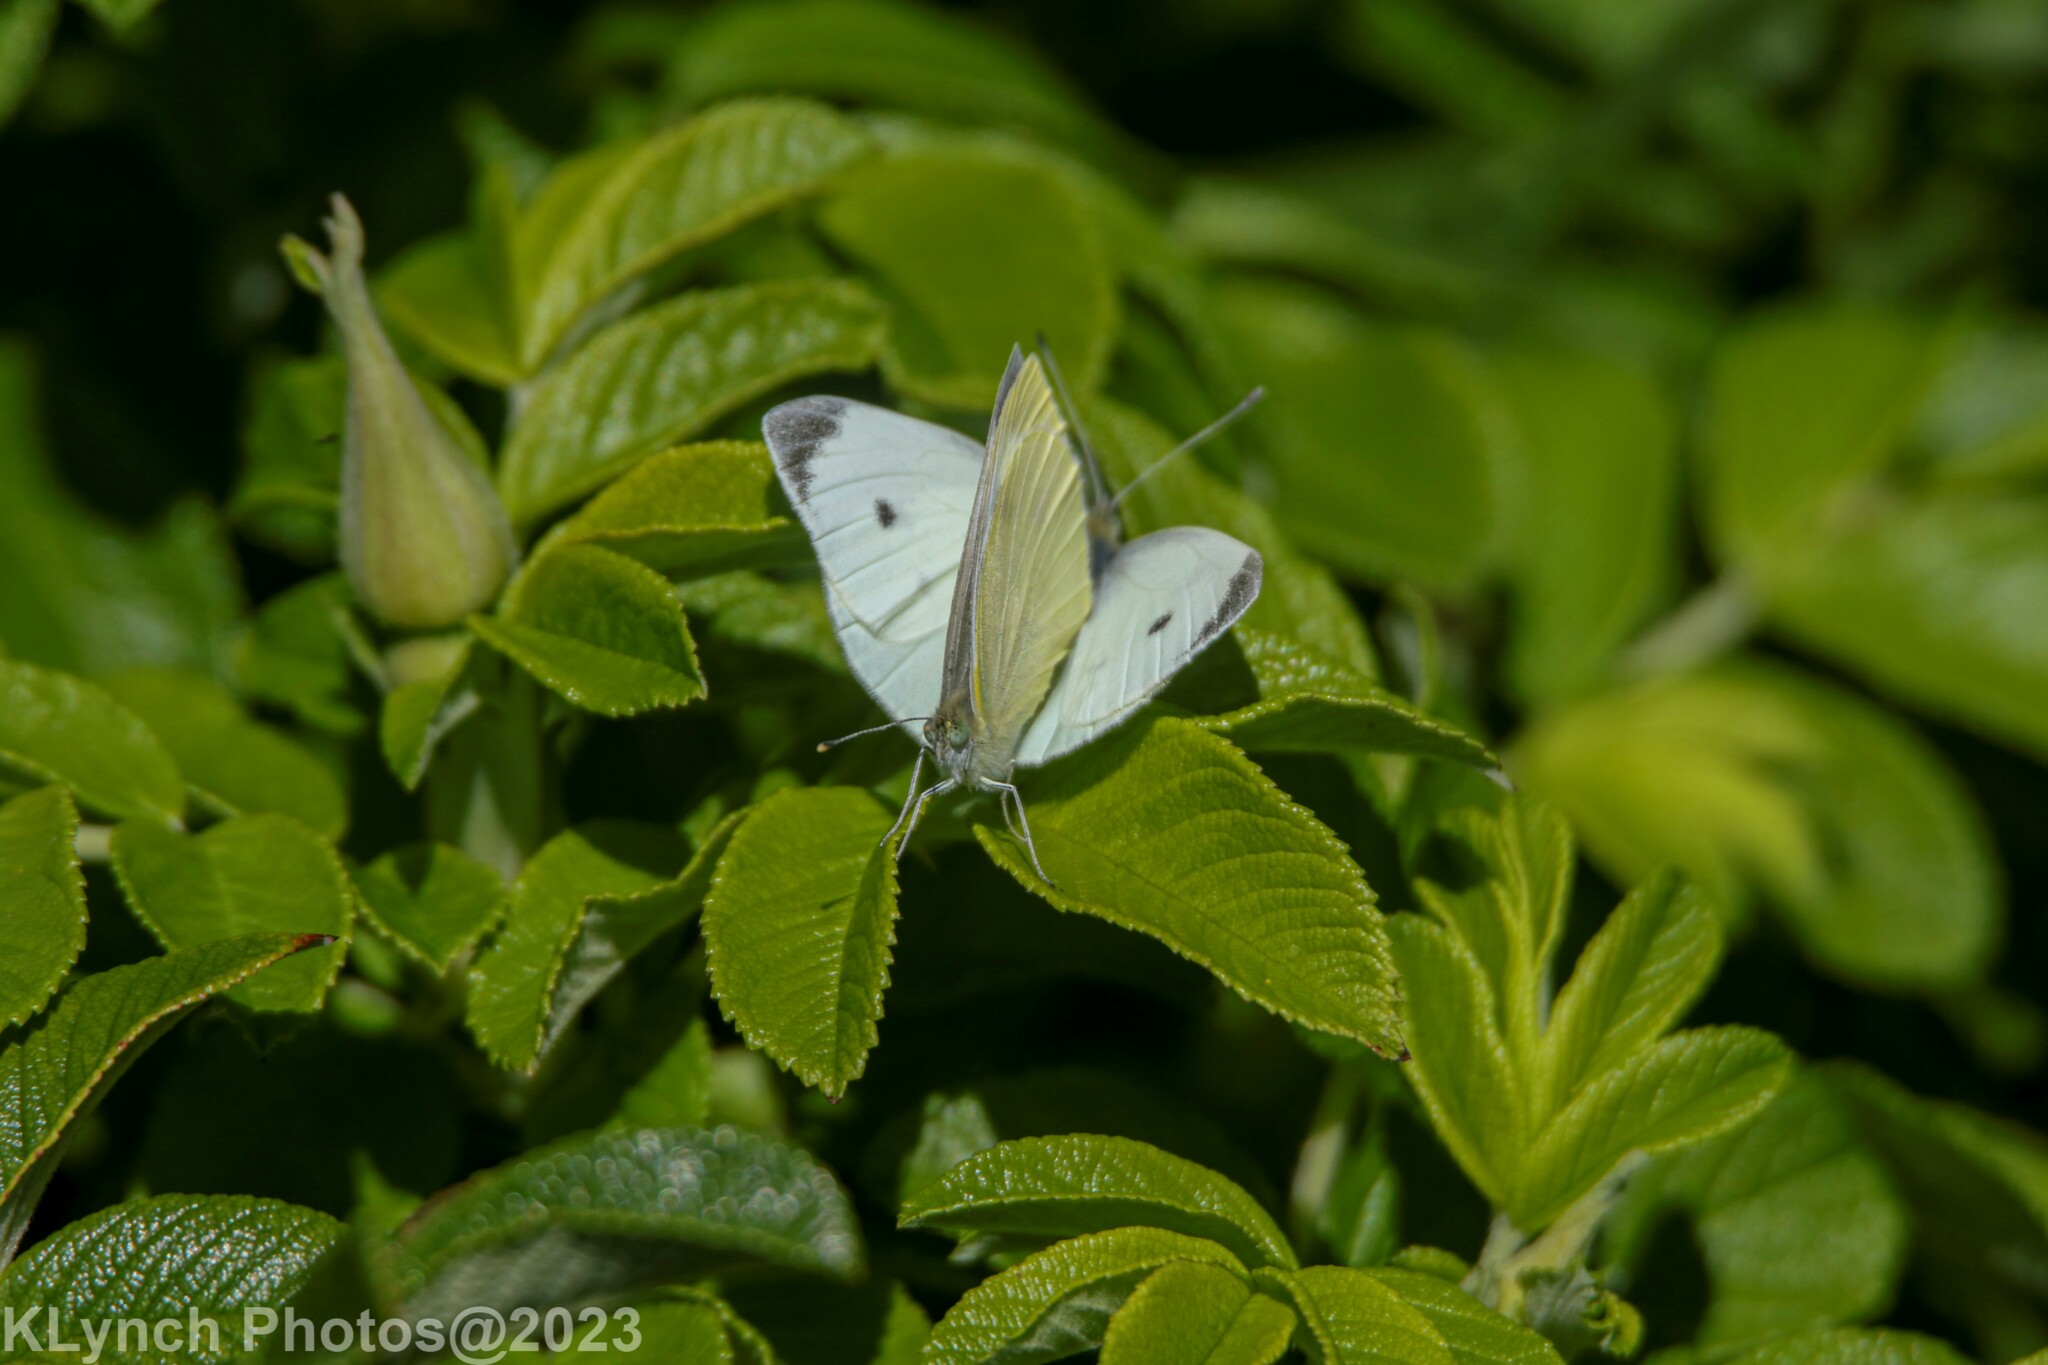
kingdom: Animalia
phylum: Arthropoda
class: Insecta
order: Lepidoptera
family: Pieridae
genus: Pieris
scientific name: Pieris rapae
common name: Small white
